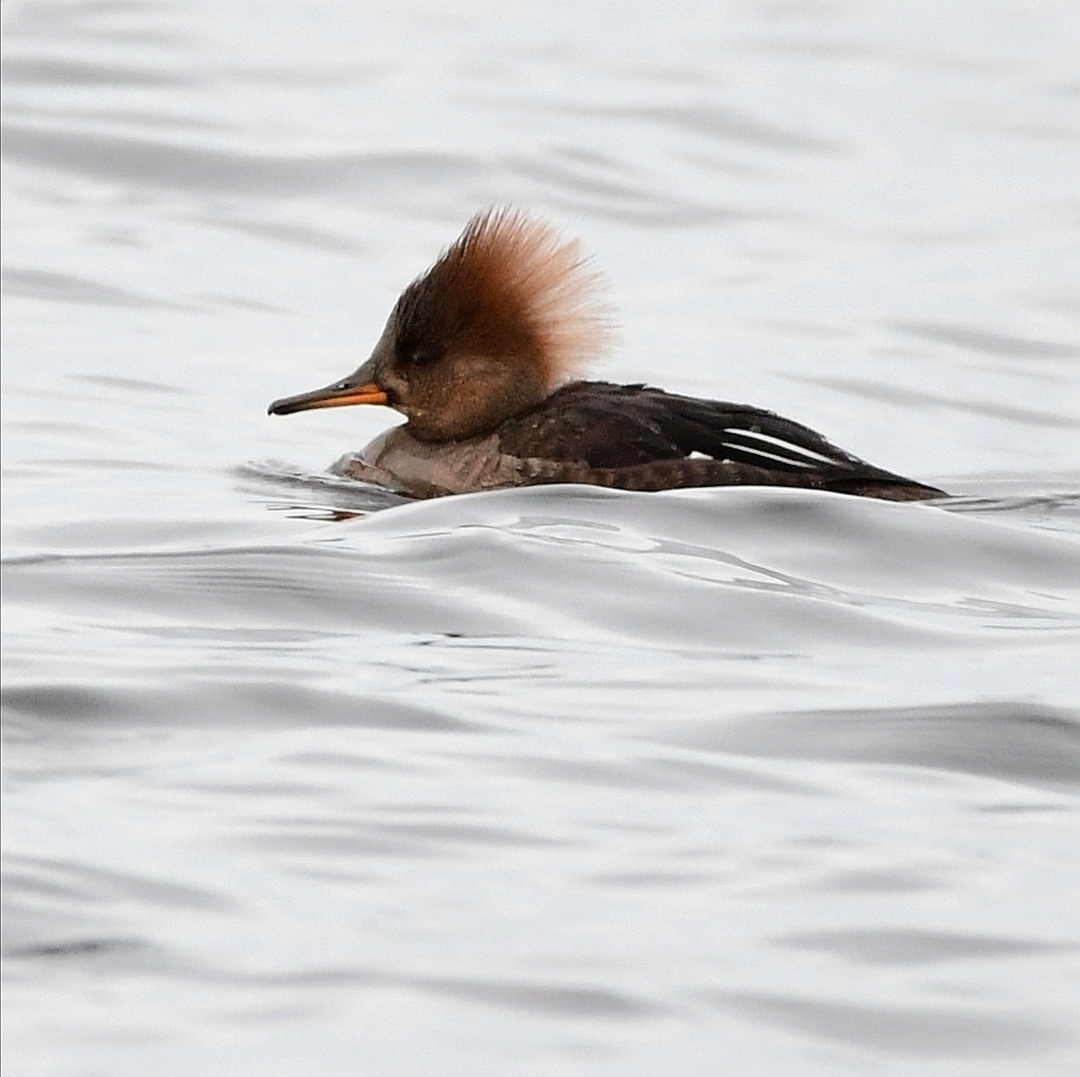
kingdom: Animalia
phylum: Chordata
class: Aves
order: Anseriformes
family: Anatidae
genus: Lophodytes
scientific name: Lophodytes cucullatus
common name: Hooded merganser
